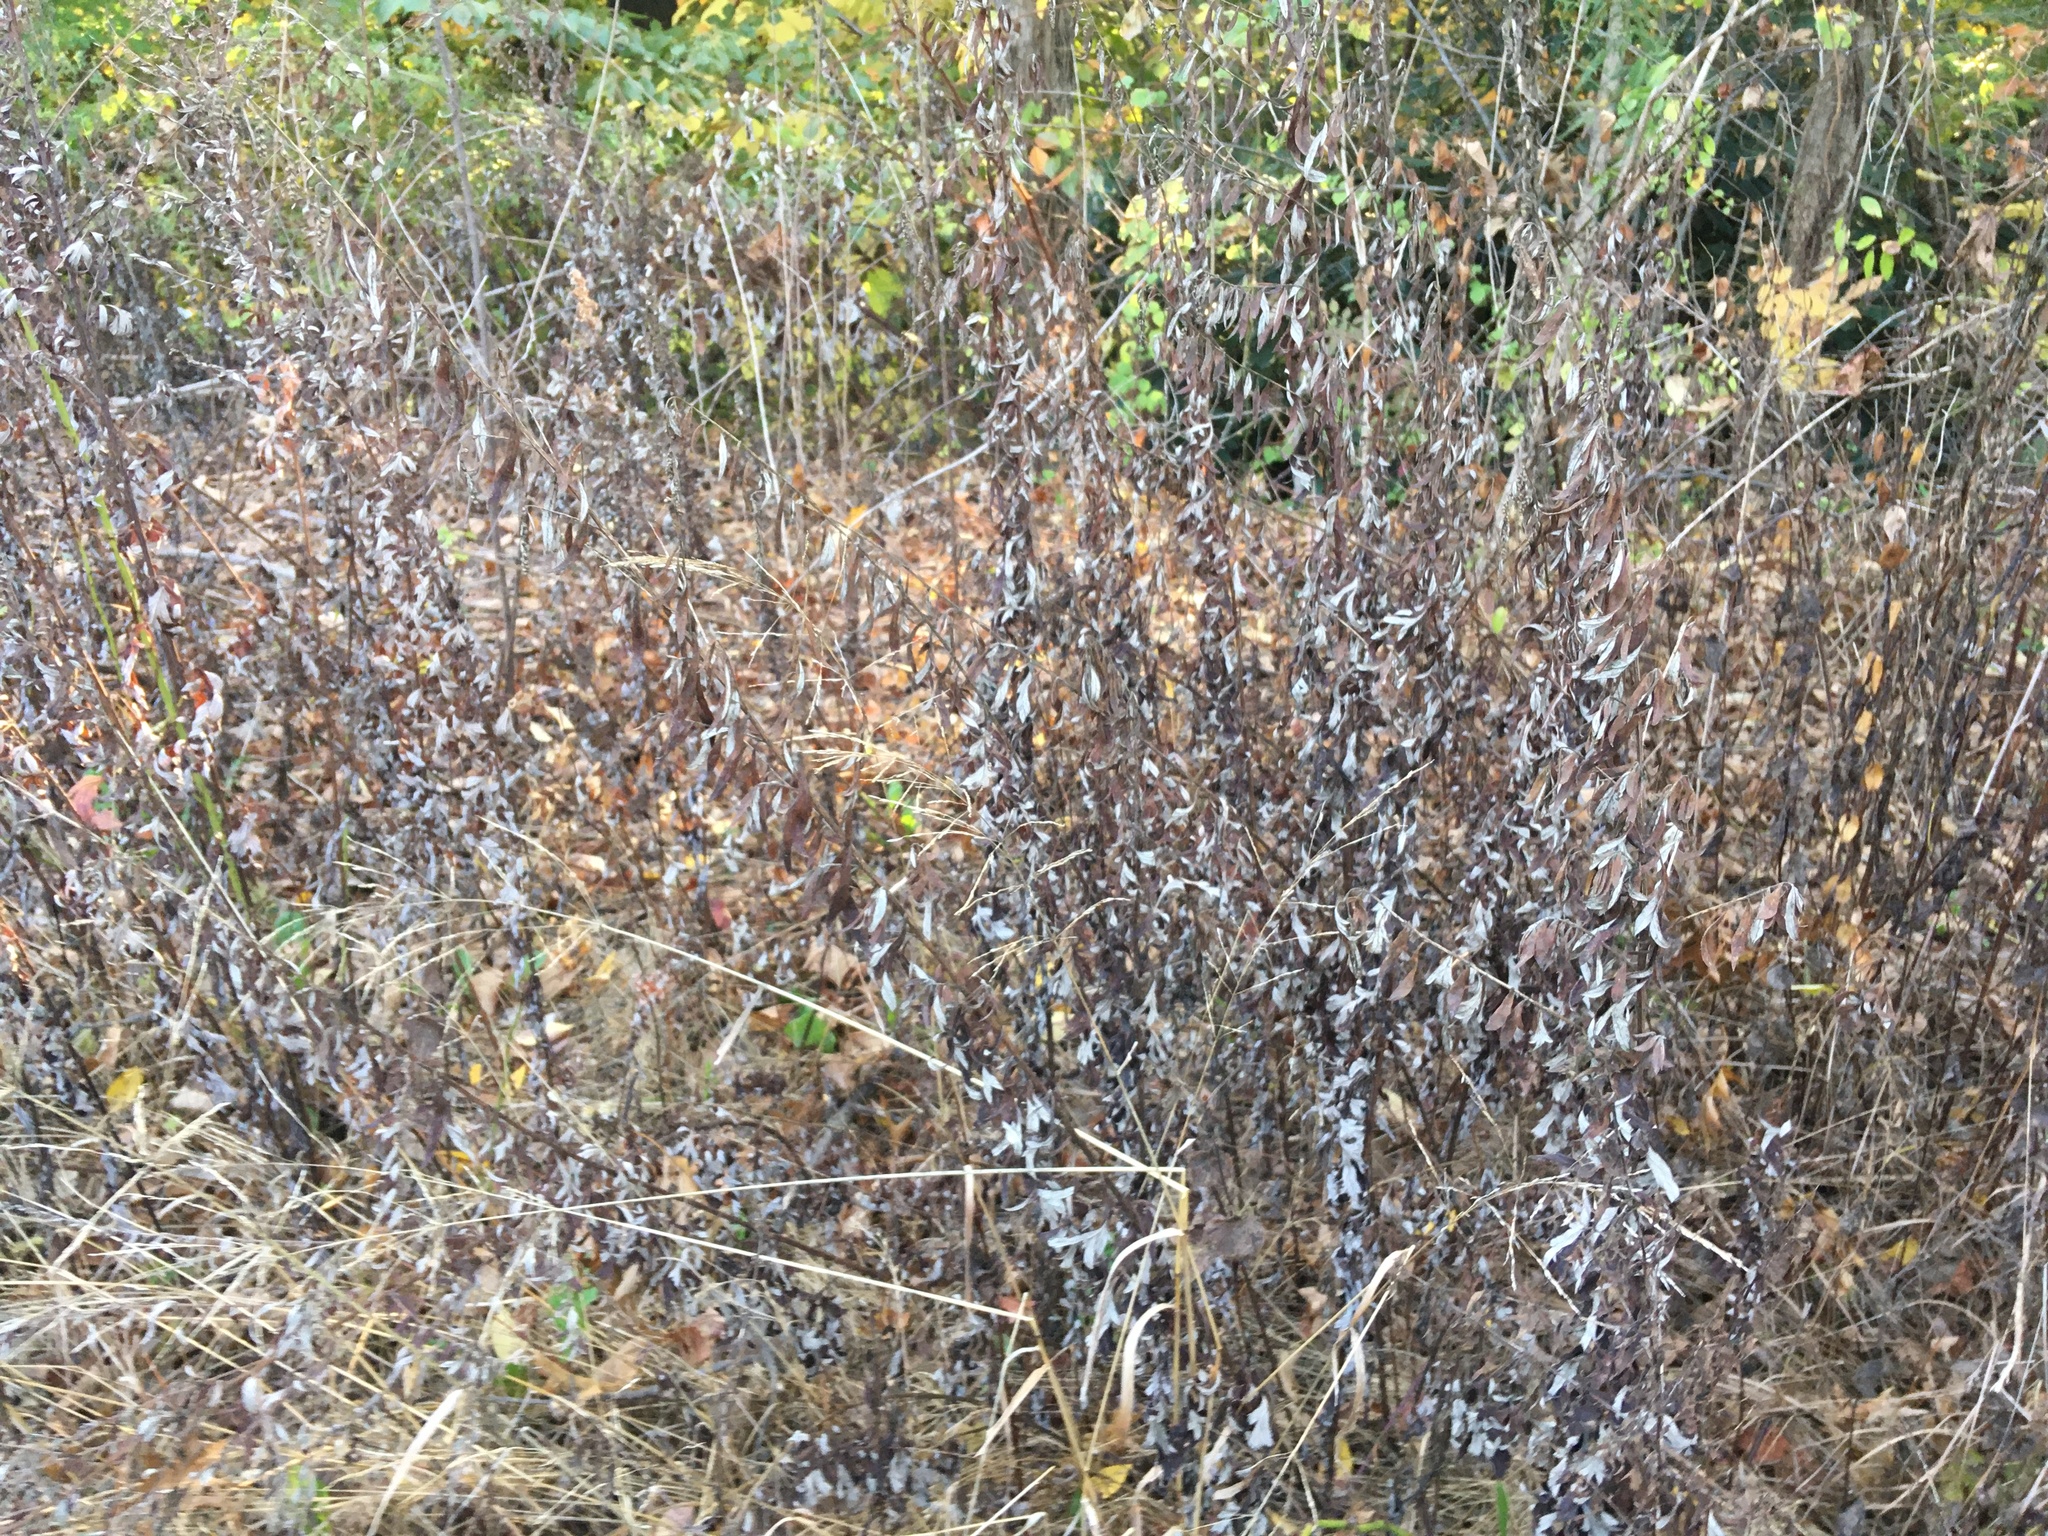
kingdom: Plantae
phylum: Tracheophyta
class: Magnoliopsida
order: Asterales
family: Asteraceae
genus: Artemisia
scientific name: Artemisia vulgaris
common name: Mugwort
